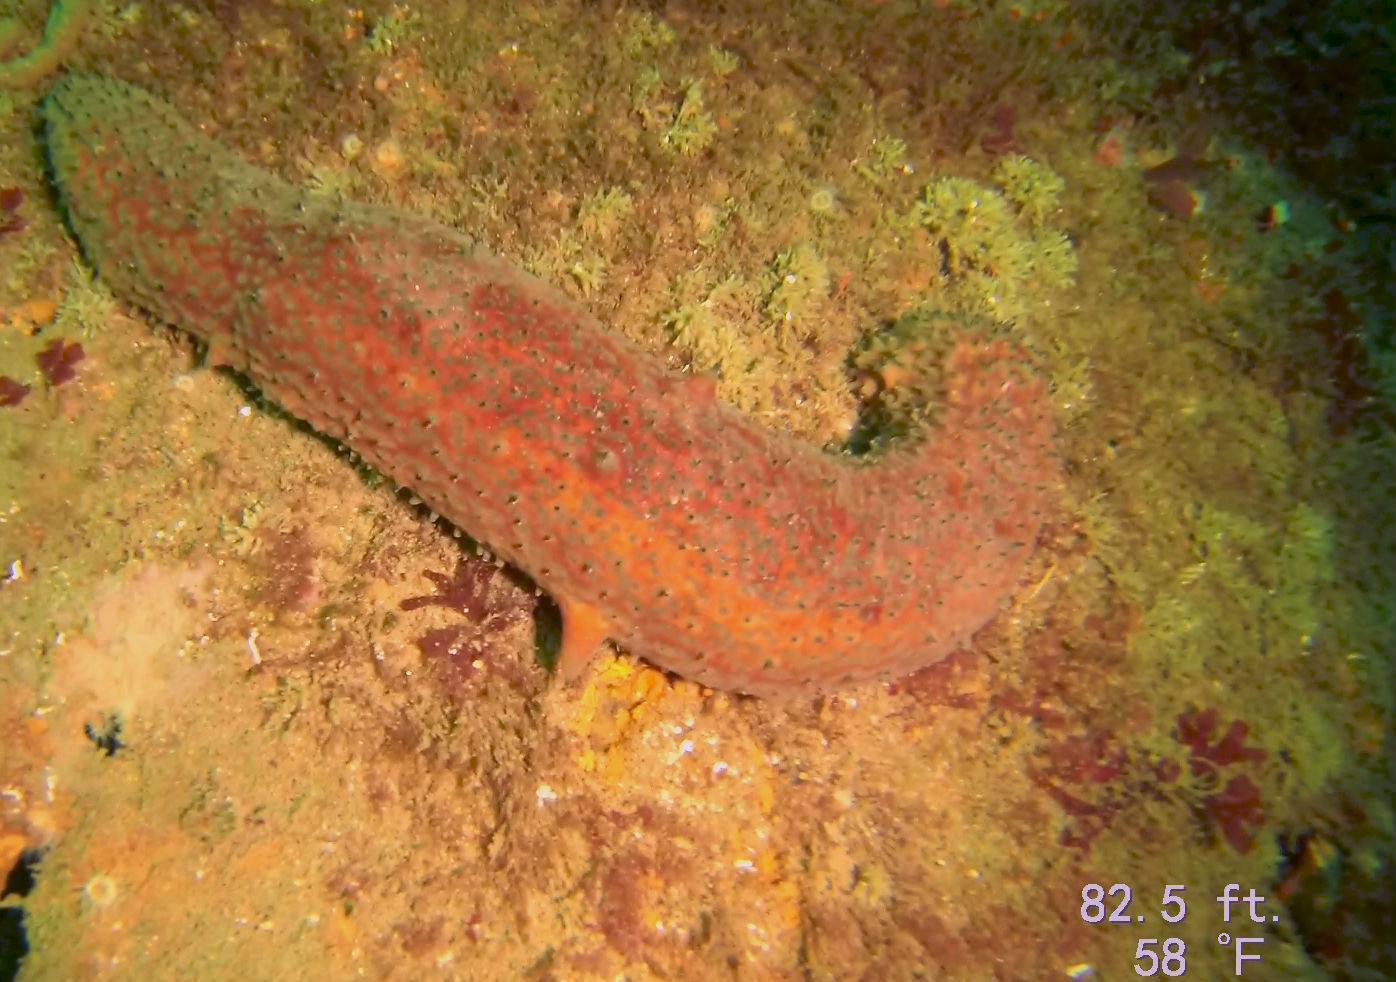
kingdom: Animalia
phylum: Echinodermata
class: Holothuroidea
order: Synallactida
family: Stichopodidae
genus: Apostichopus
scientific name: Apostichopus parvimensis
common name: Warty sea cucumber
